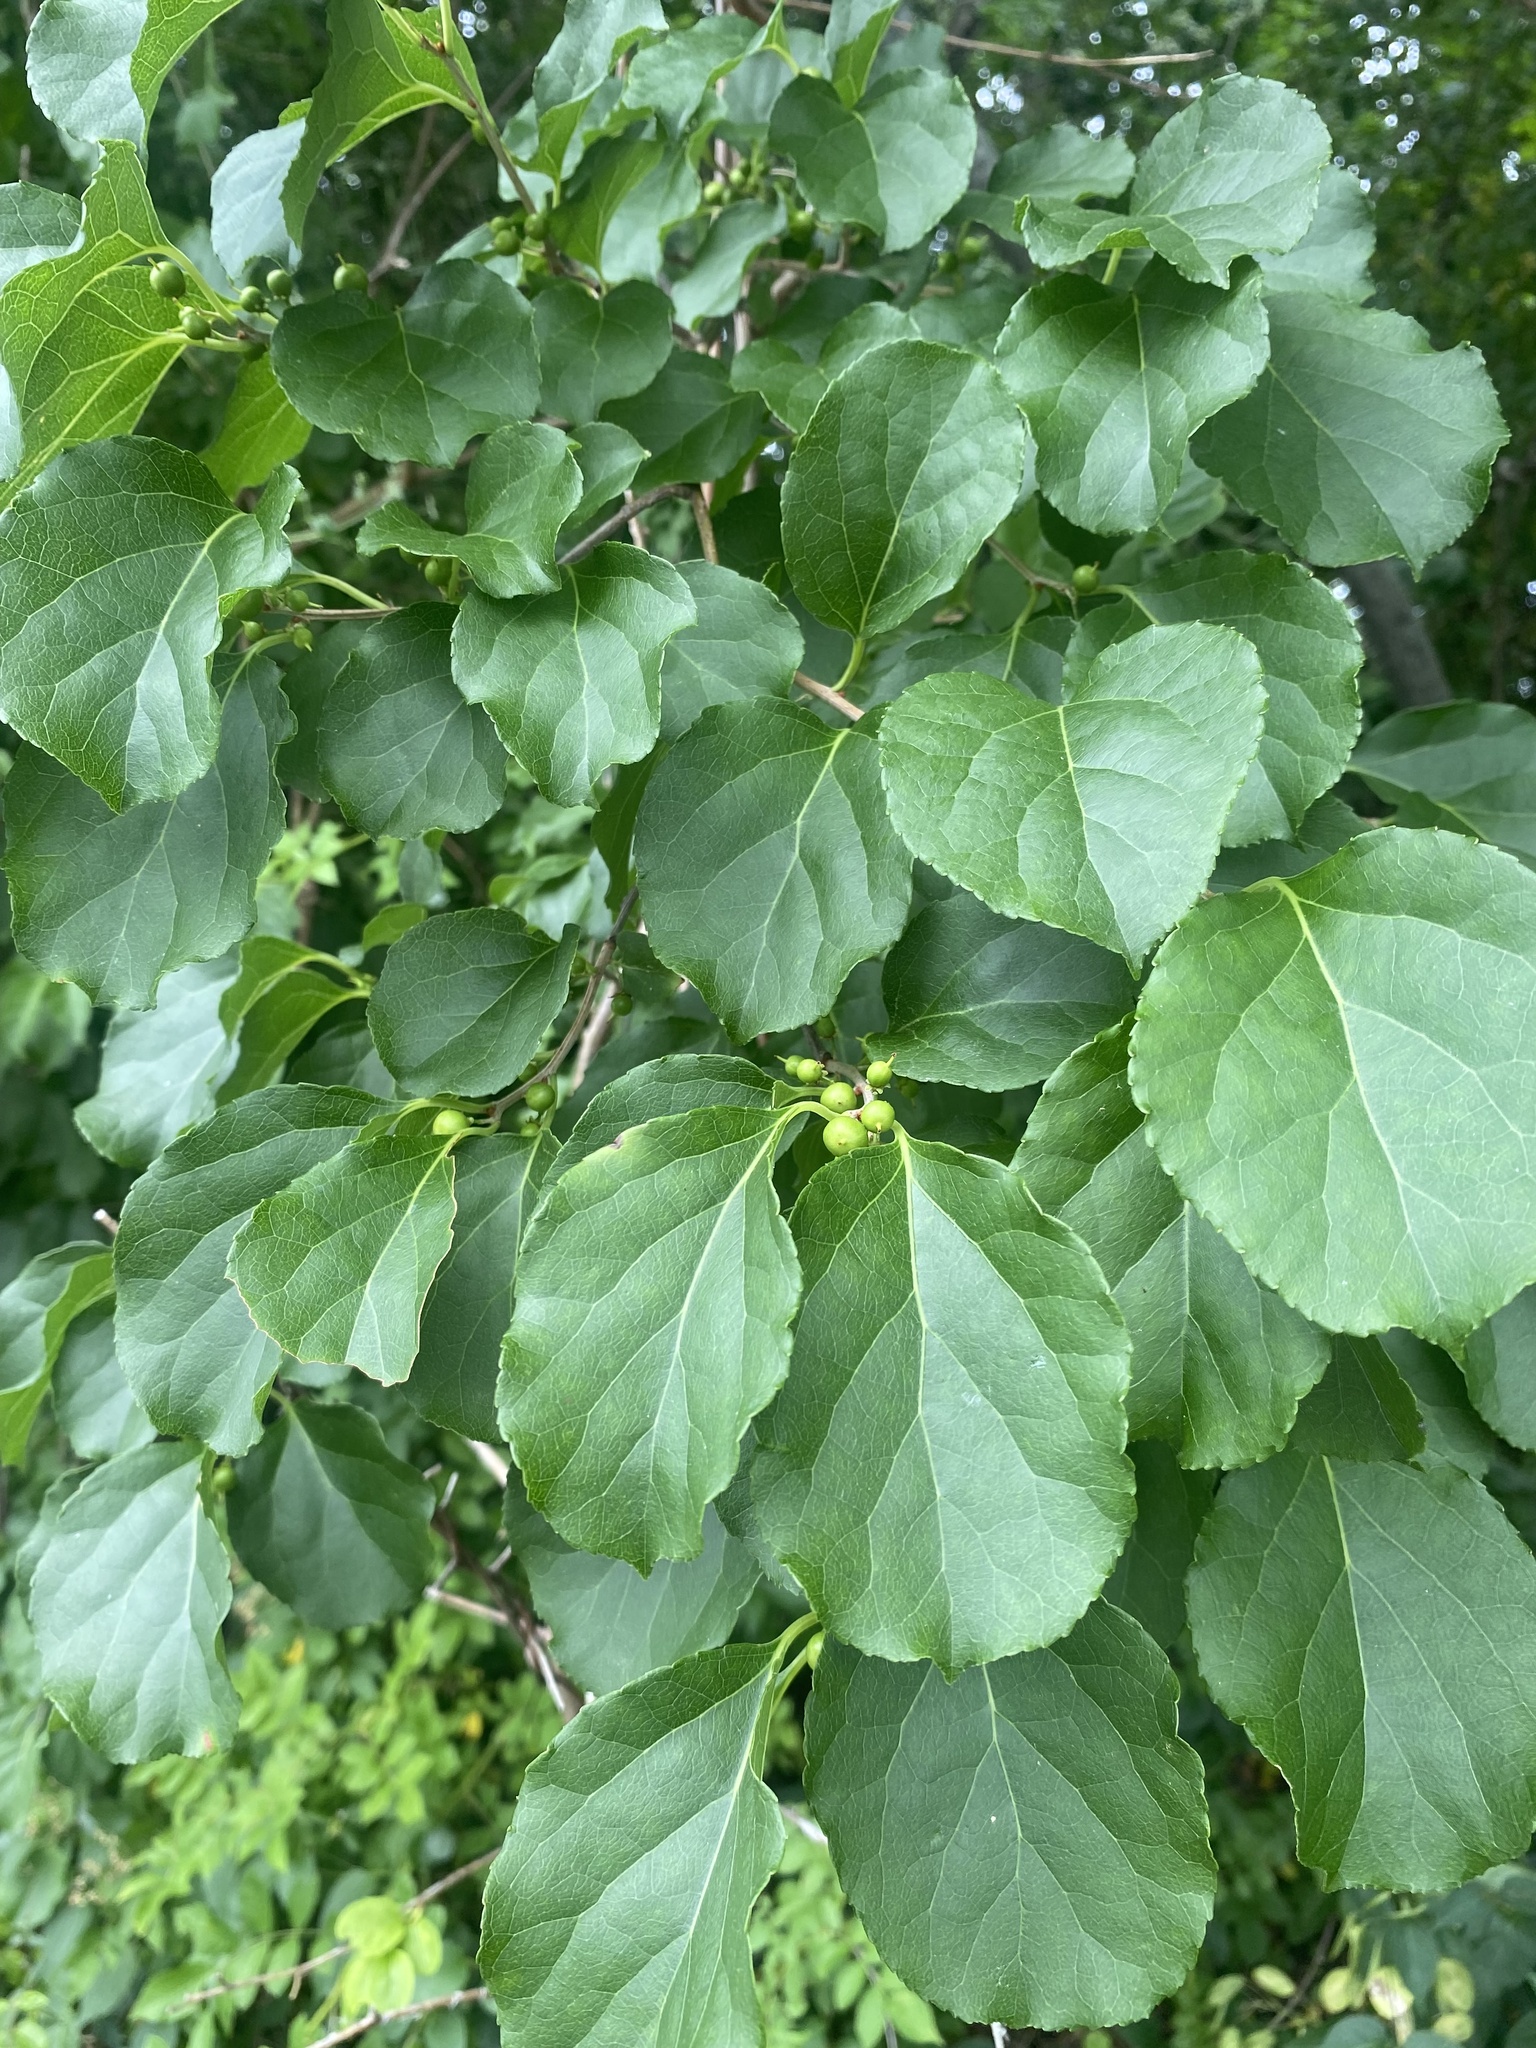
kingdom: Plantae
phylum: Tracheophyta
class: Magnoliopsida
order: Celastrales
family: Celastraceae
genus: Celastrus
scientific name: Celastrus orbiculatus
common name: Oriental bittersweet
